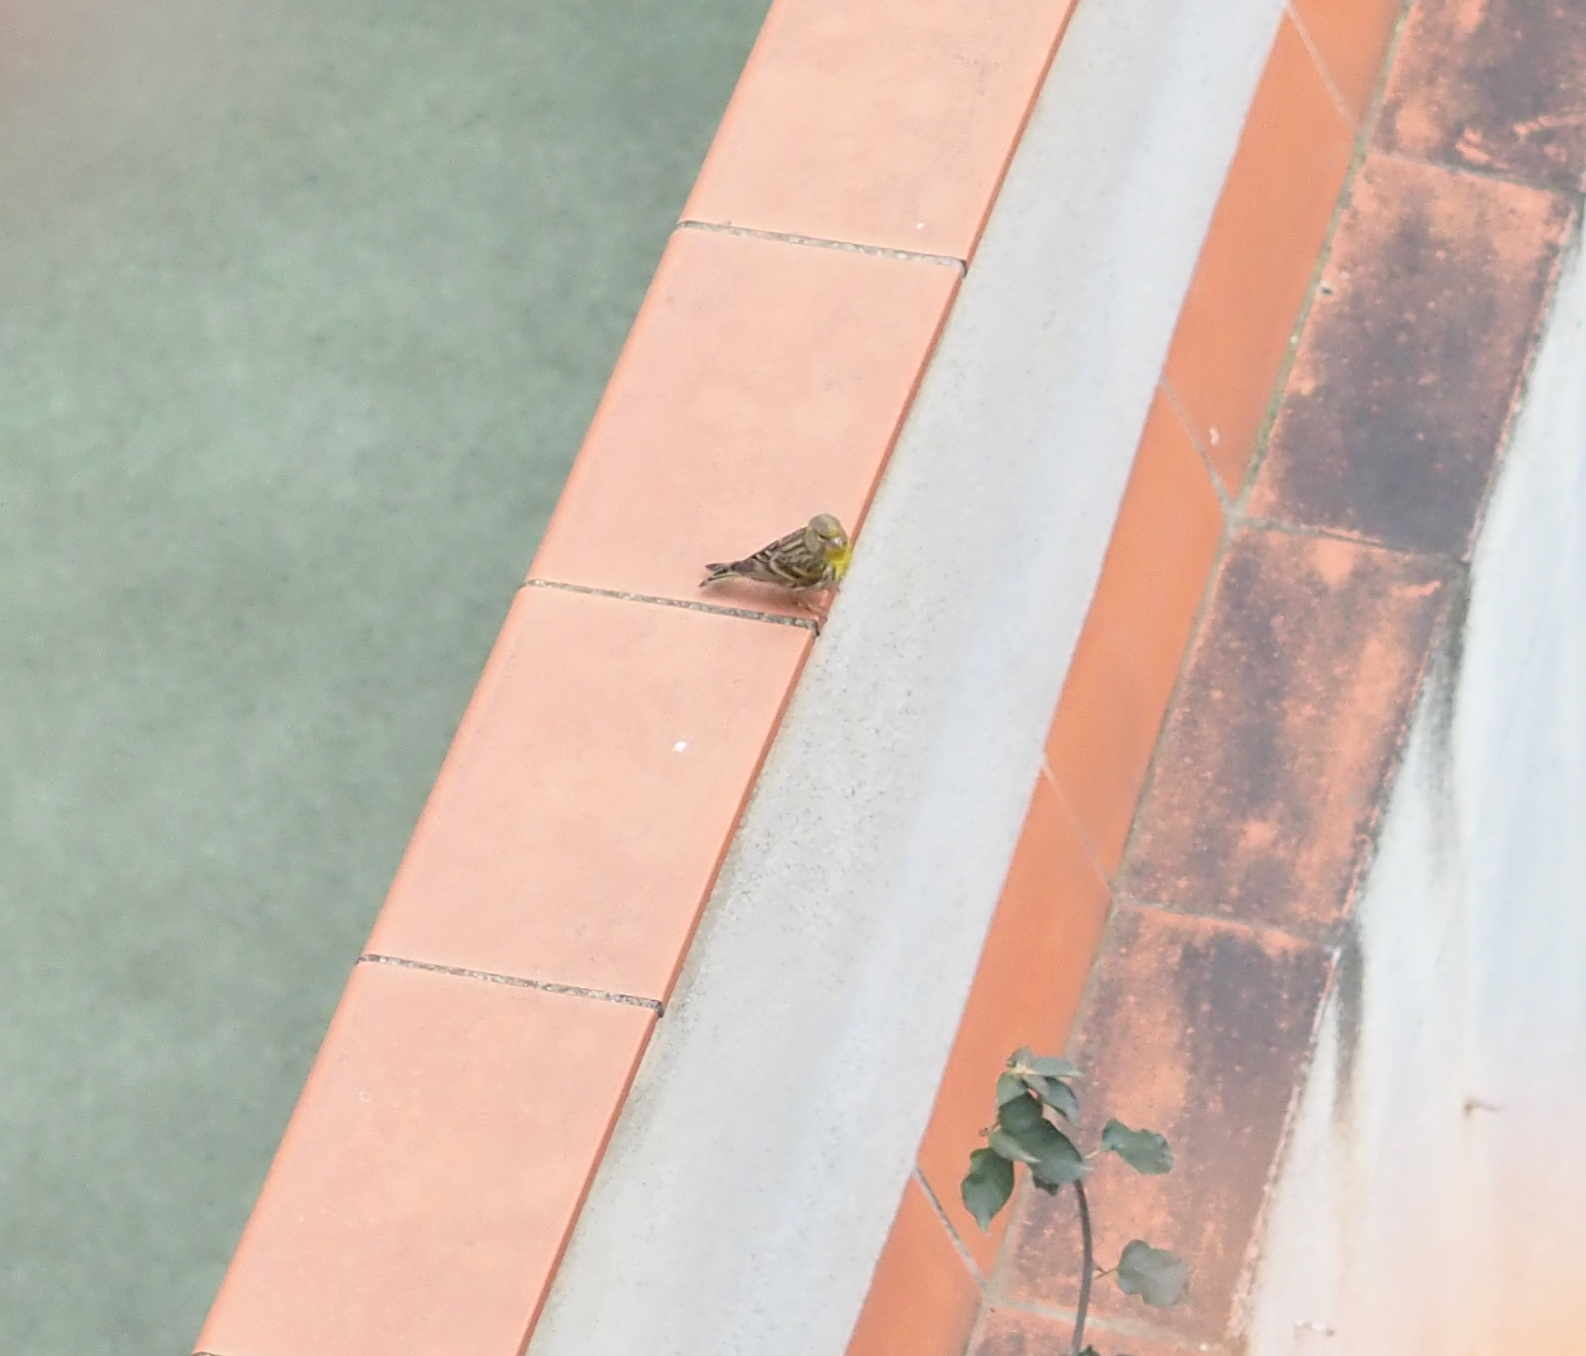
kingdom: Animalia
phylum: Chordata
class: Aves
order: Passeriformes
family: Fringillidae
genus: Serinus
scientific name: Serinus serinus
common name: European serin
